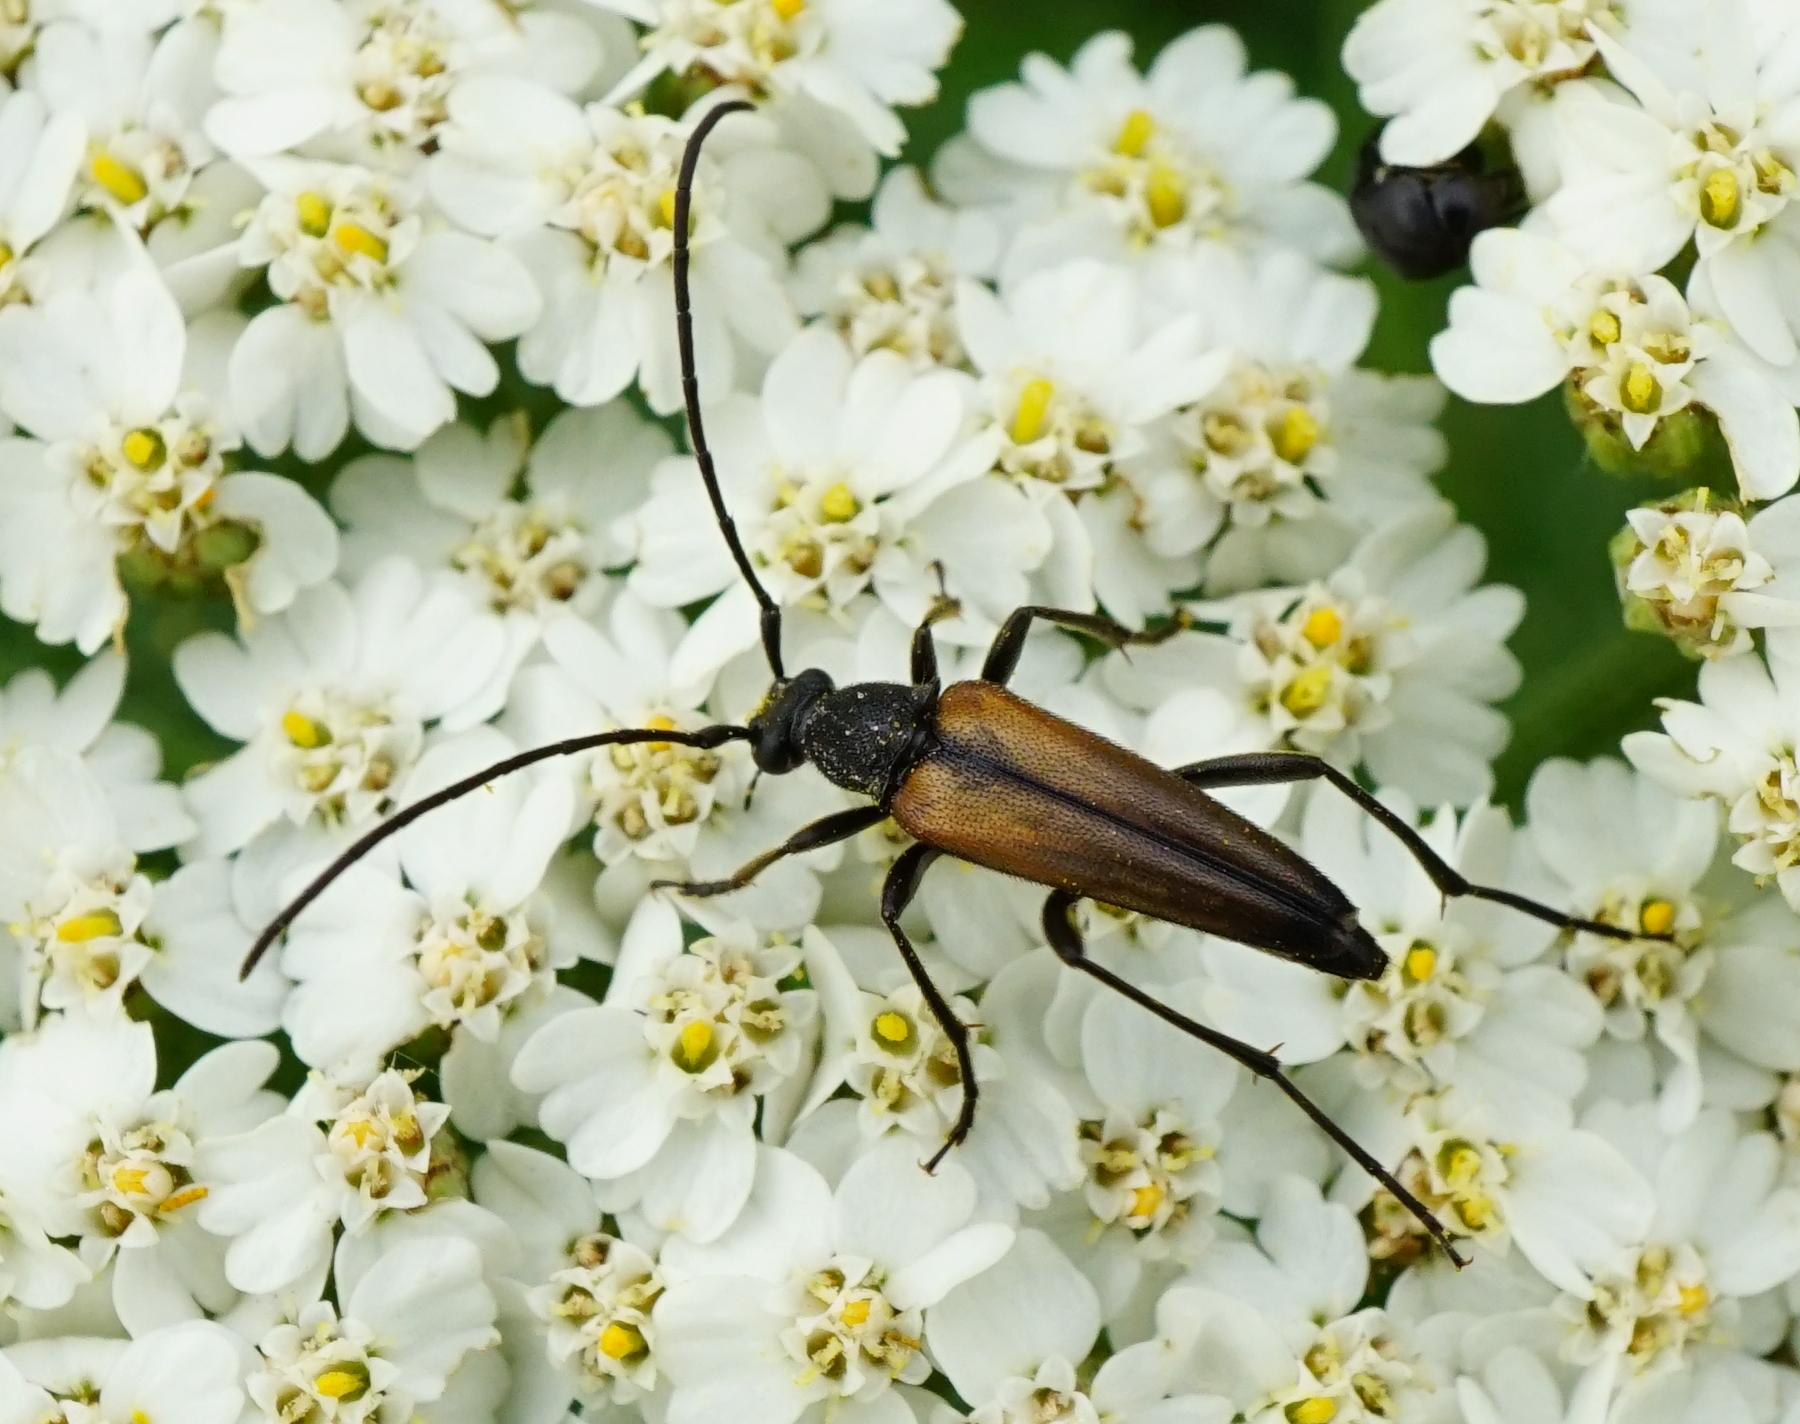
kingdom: Animalia
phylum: Arthropoda
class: Insecta
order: Coleoptera
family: Cerambycidae
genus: Stenurella
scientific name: Stenurella melanura
